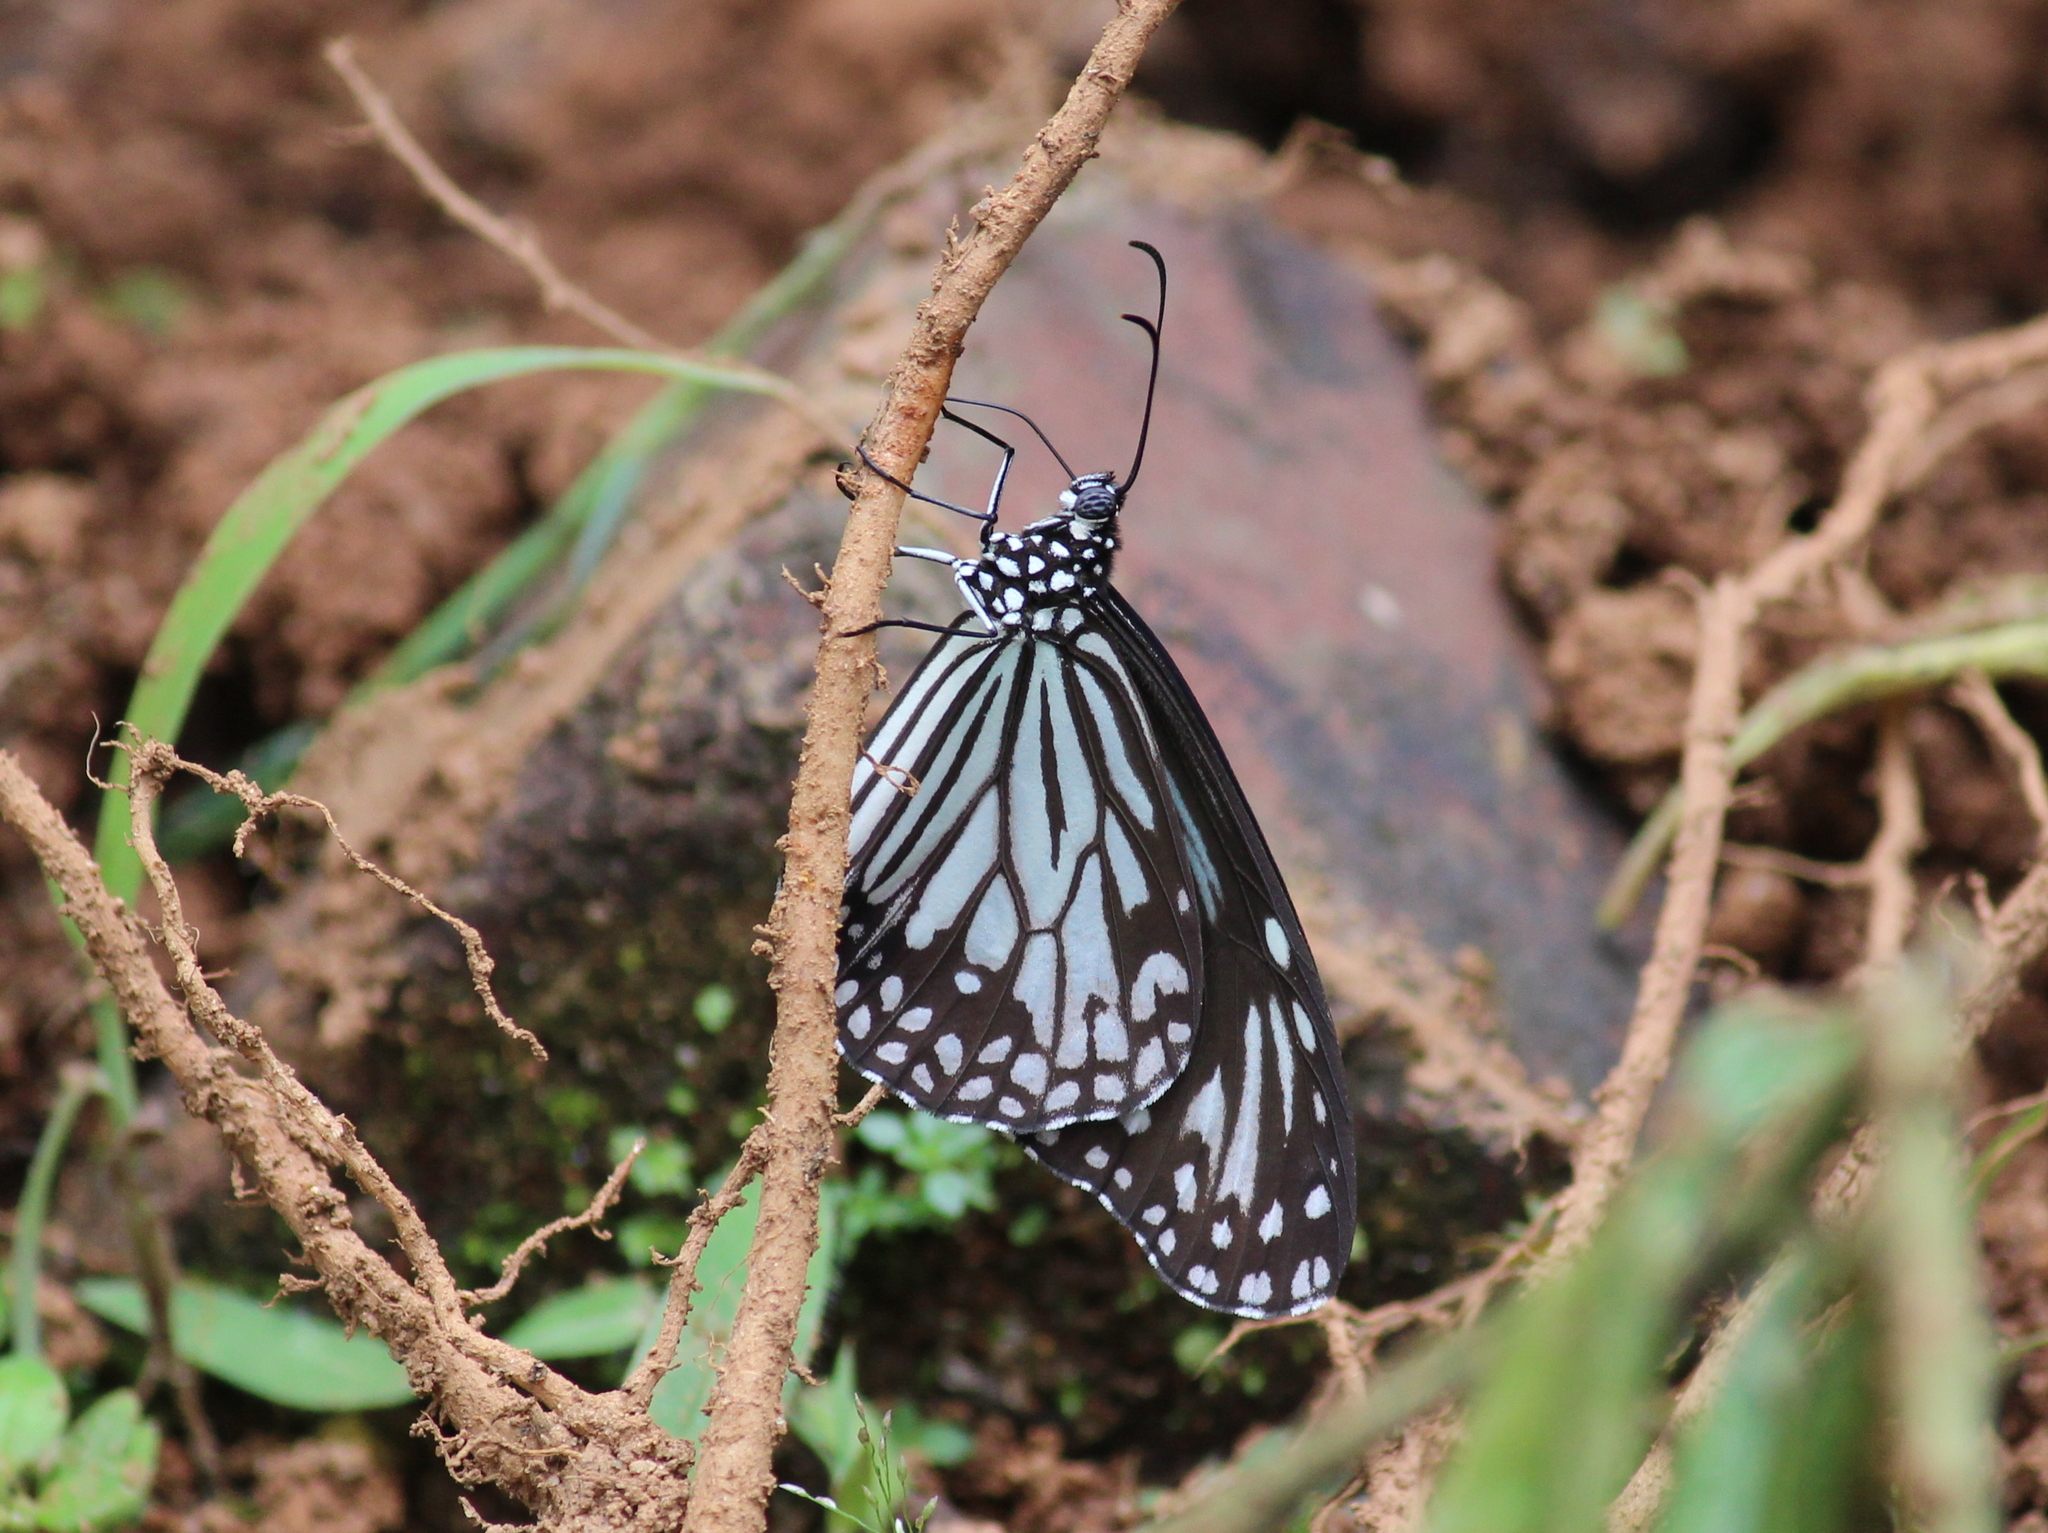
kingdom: Animalia
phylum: Arthropoda
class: Insecta
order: Lepidoptera
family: Nymphalidae
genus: Parantica
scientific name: Parantica aglea
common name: Glassy tiger
